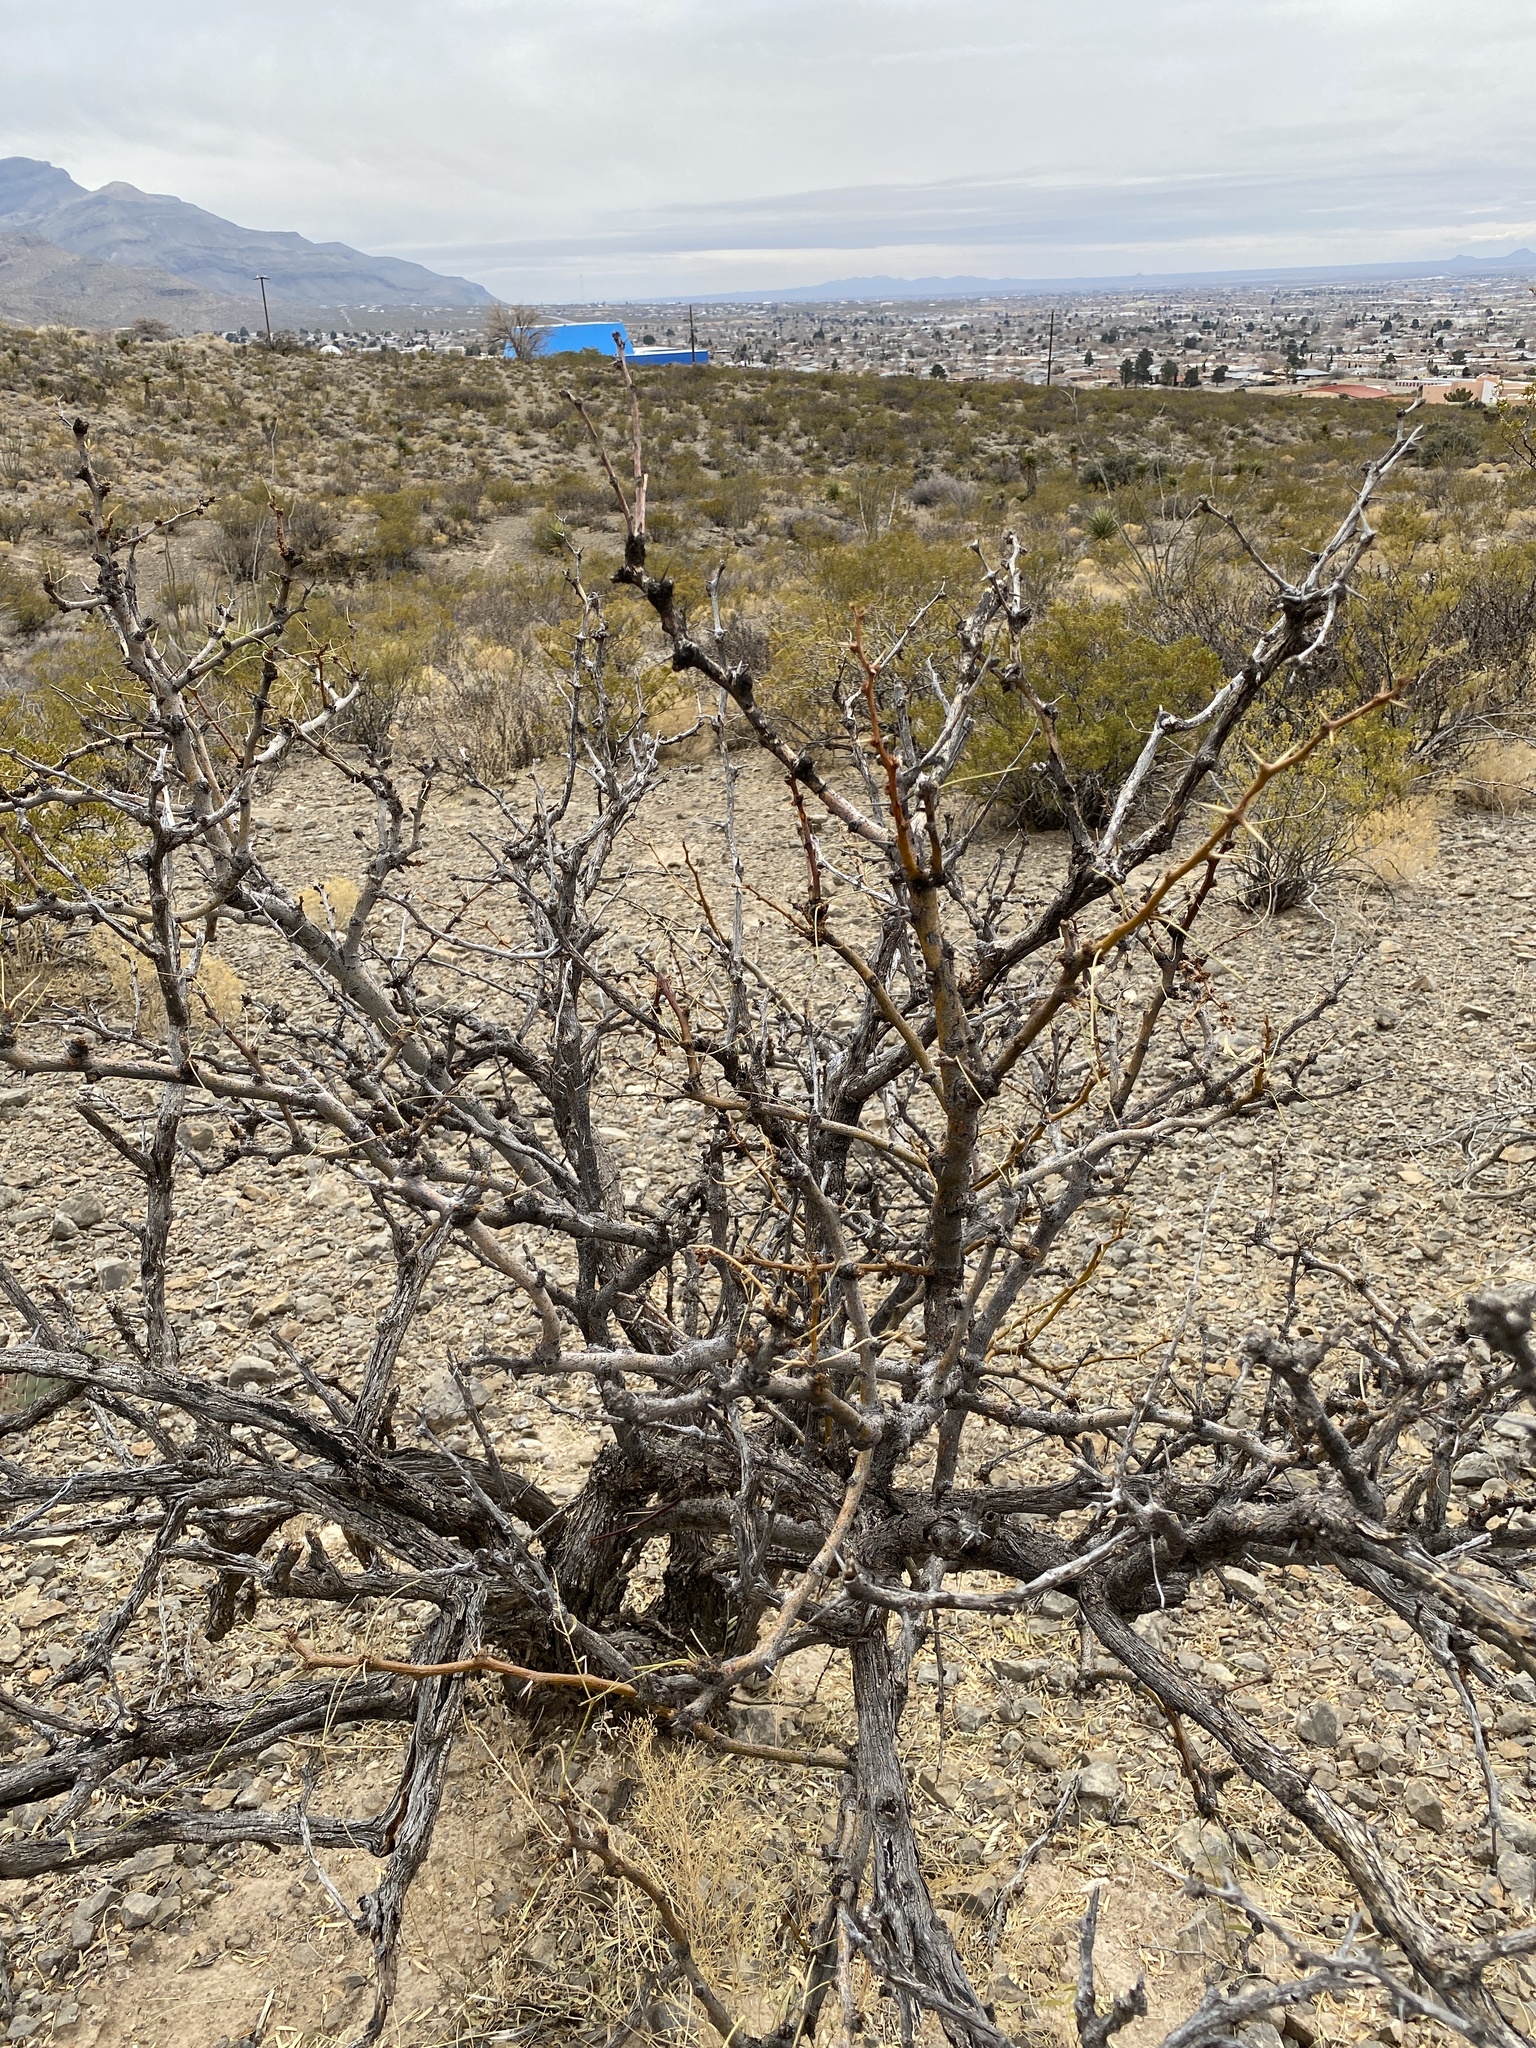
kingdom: Plantae
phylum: Tracheophyta
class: Magnoliopsida
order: Fabales
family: Fabaceae
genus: Prosopis
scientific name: Prosopis glandulosa
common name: Honey mesquite
